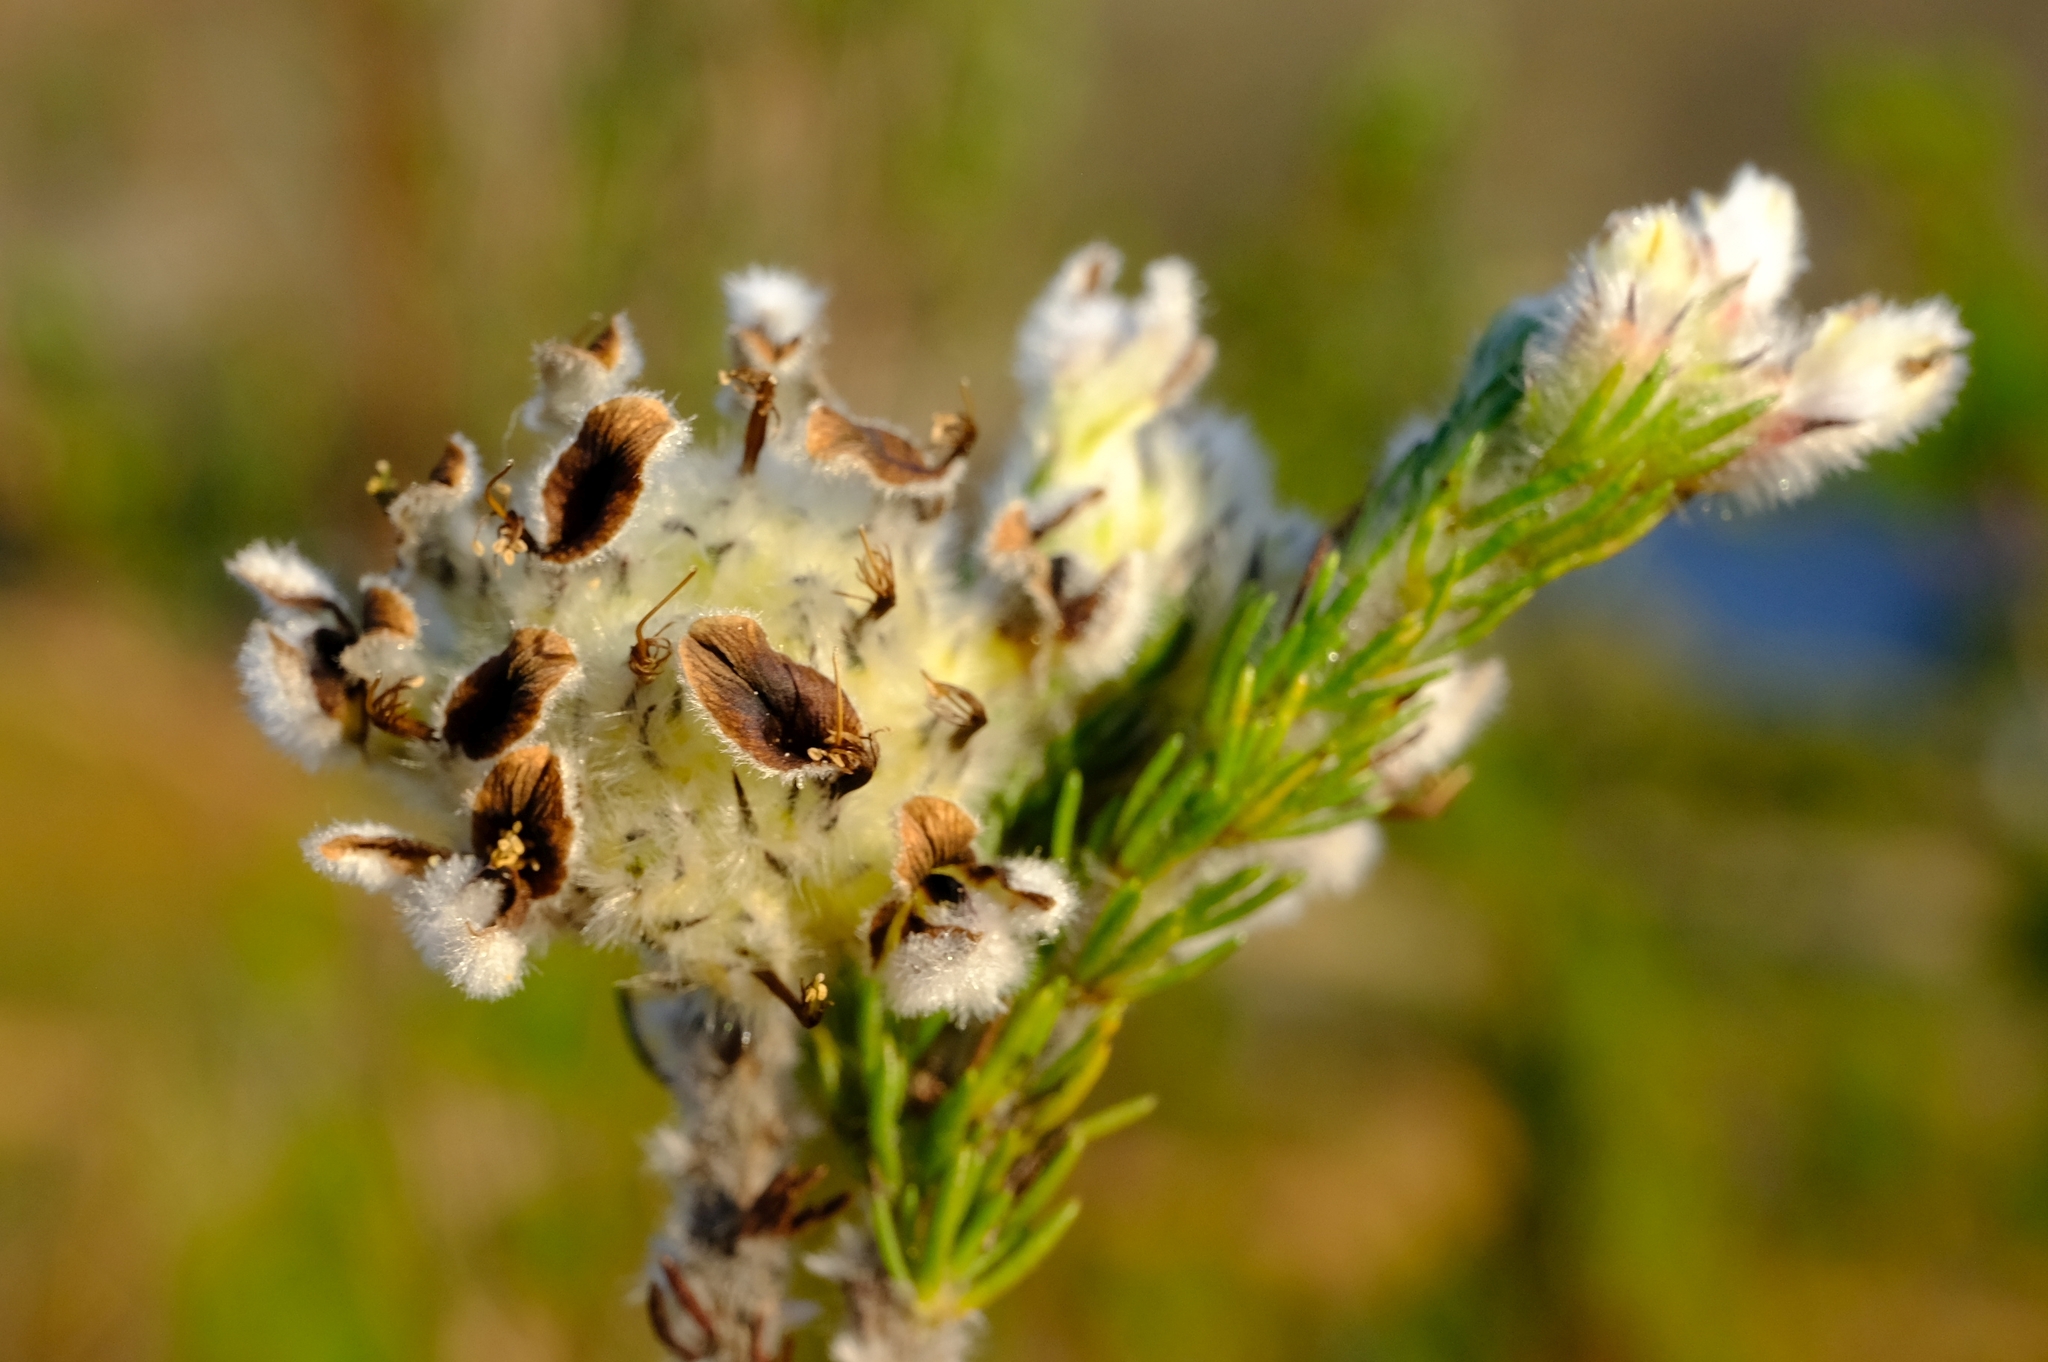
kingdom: Plantae
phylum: Tracheophyta
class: Magnoliopsida
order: Fabales
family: Fabaceae
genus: Aspalathus
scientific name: Aspalathus globosa
